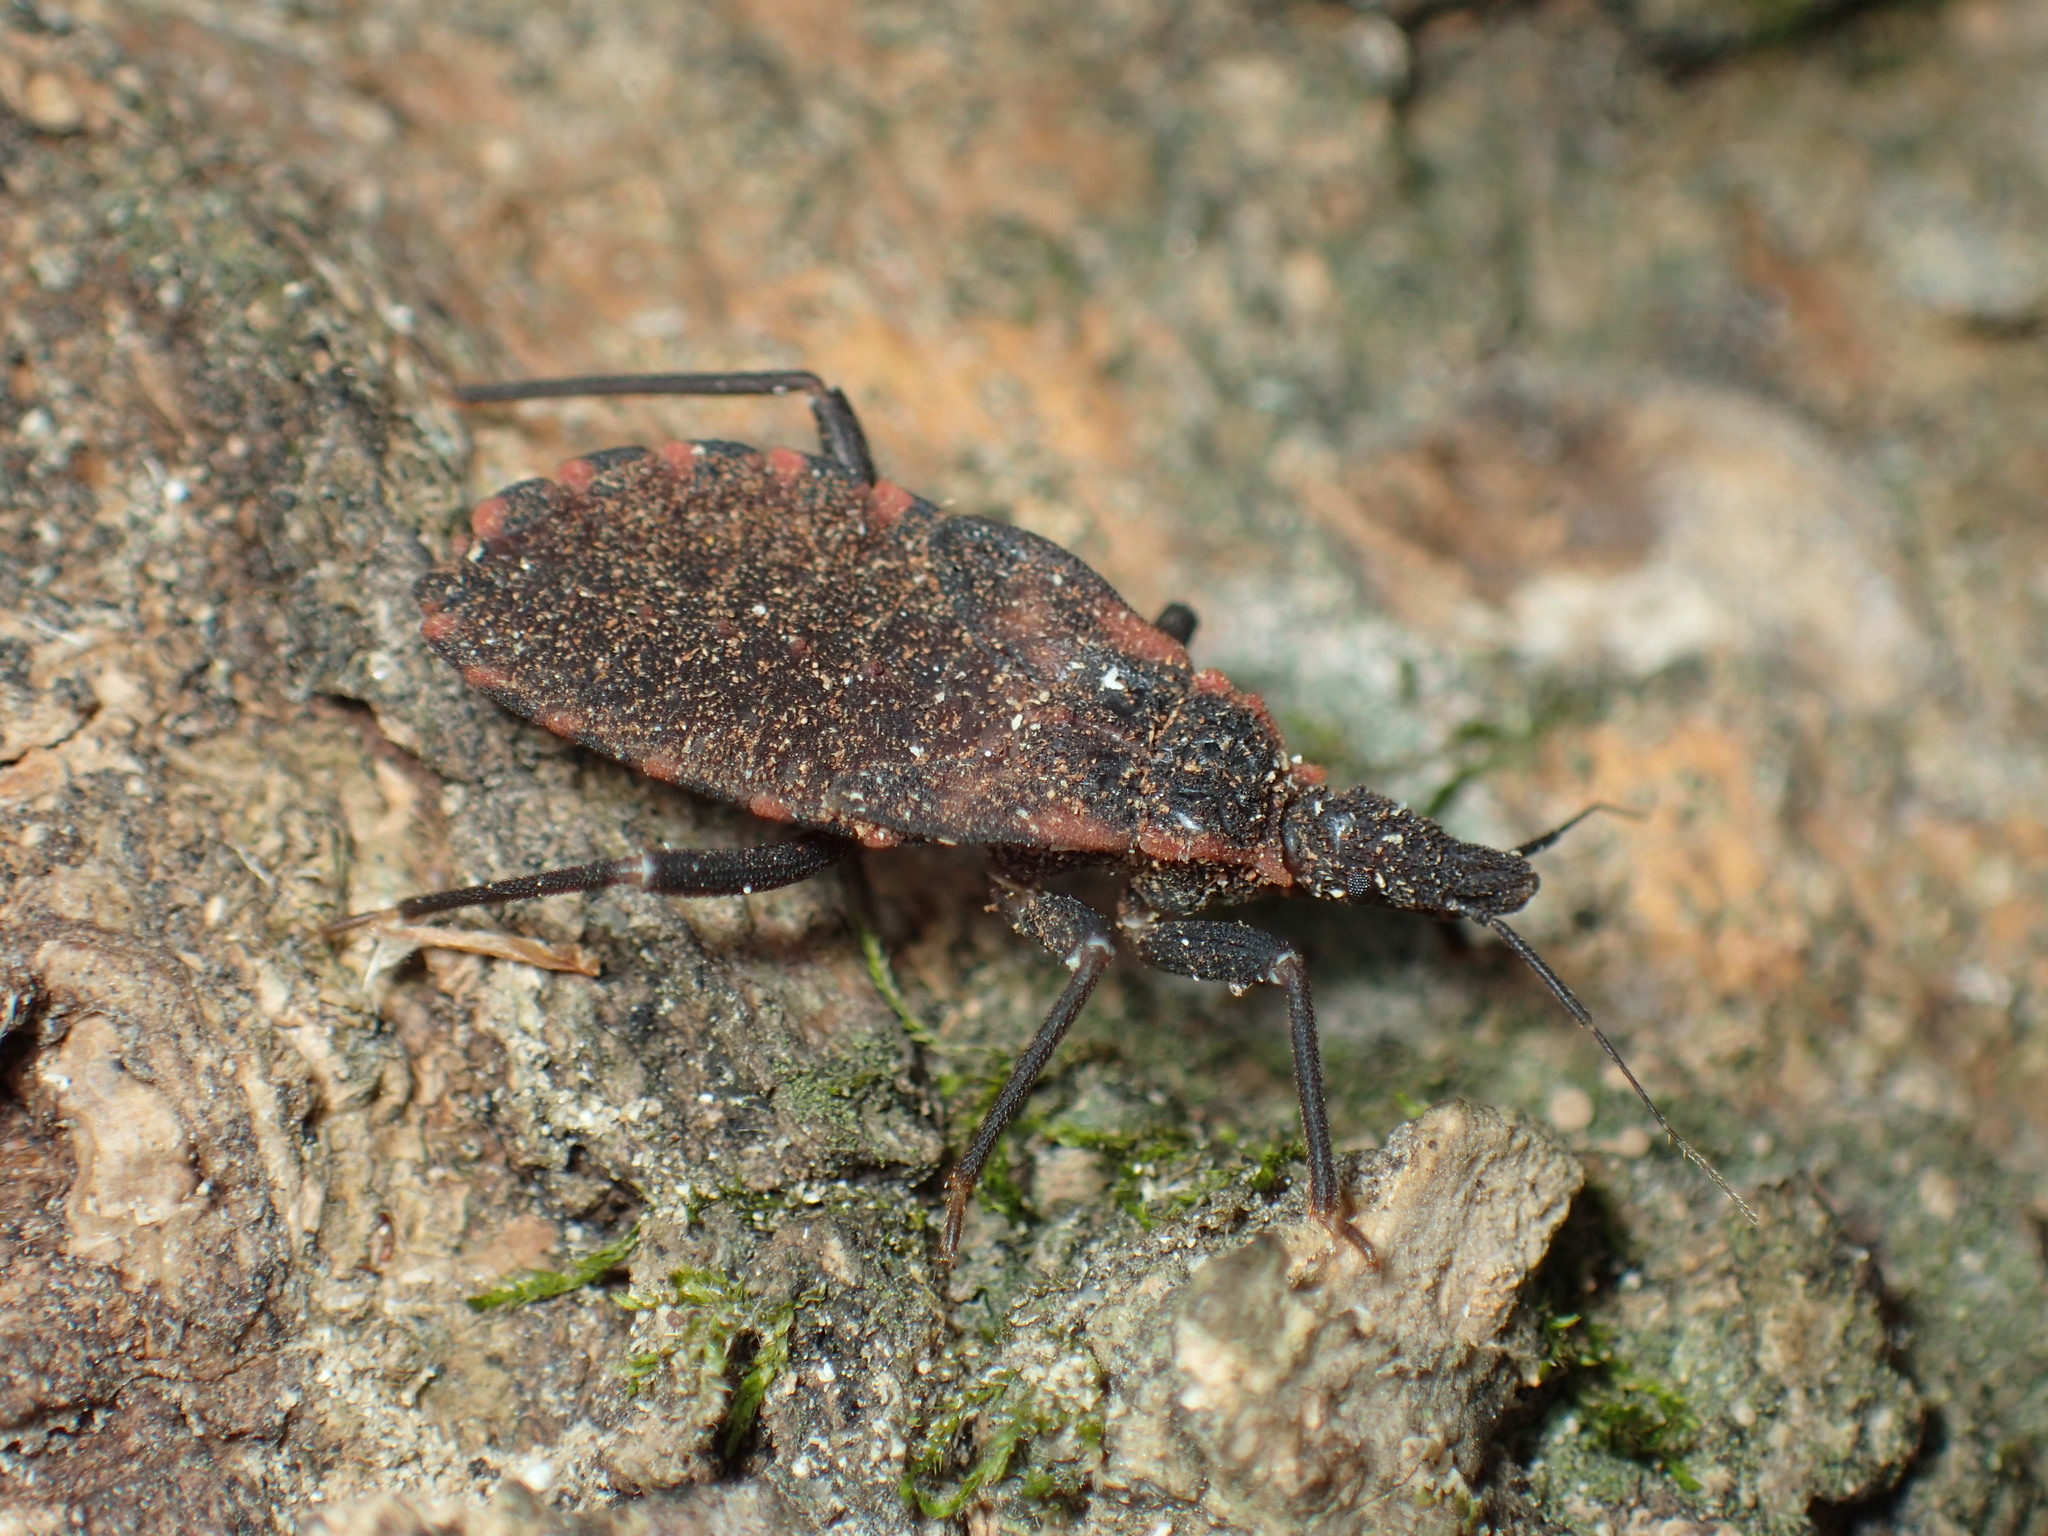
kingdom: Animalia
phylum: Arthropoda
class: Insecta
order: Hemiptera
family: Reduviidae
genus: Triatoma
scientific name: Triatoma sanguisuga
